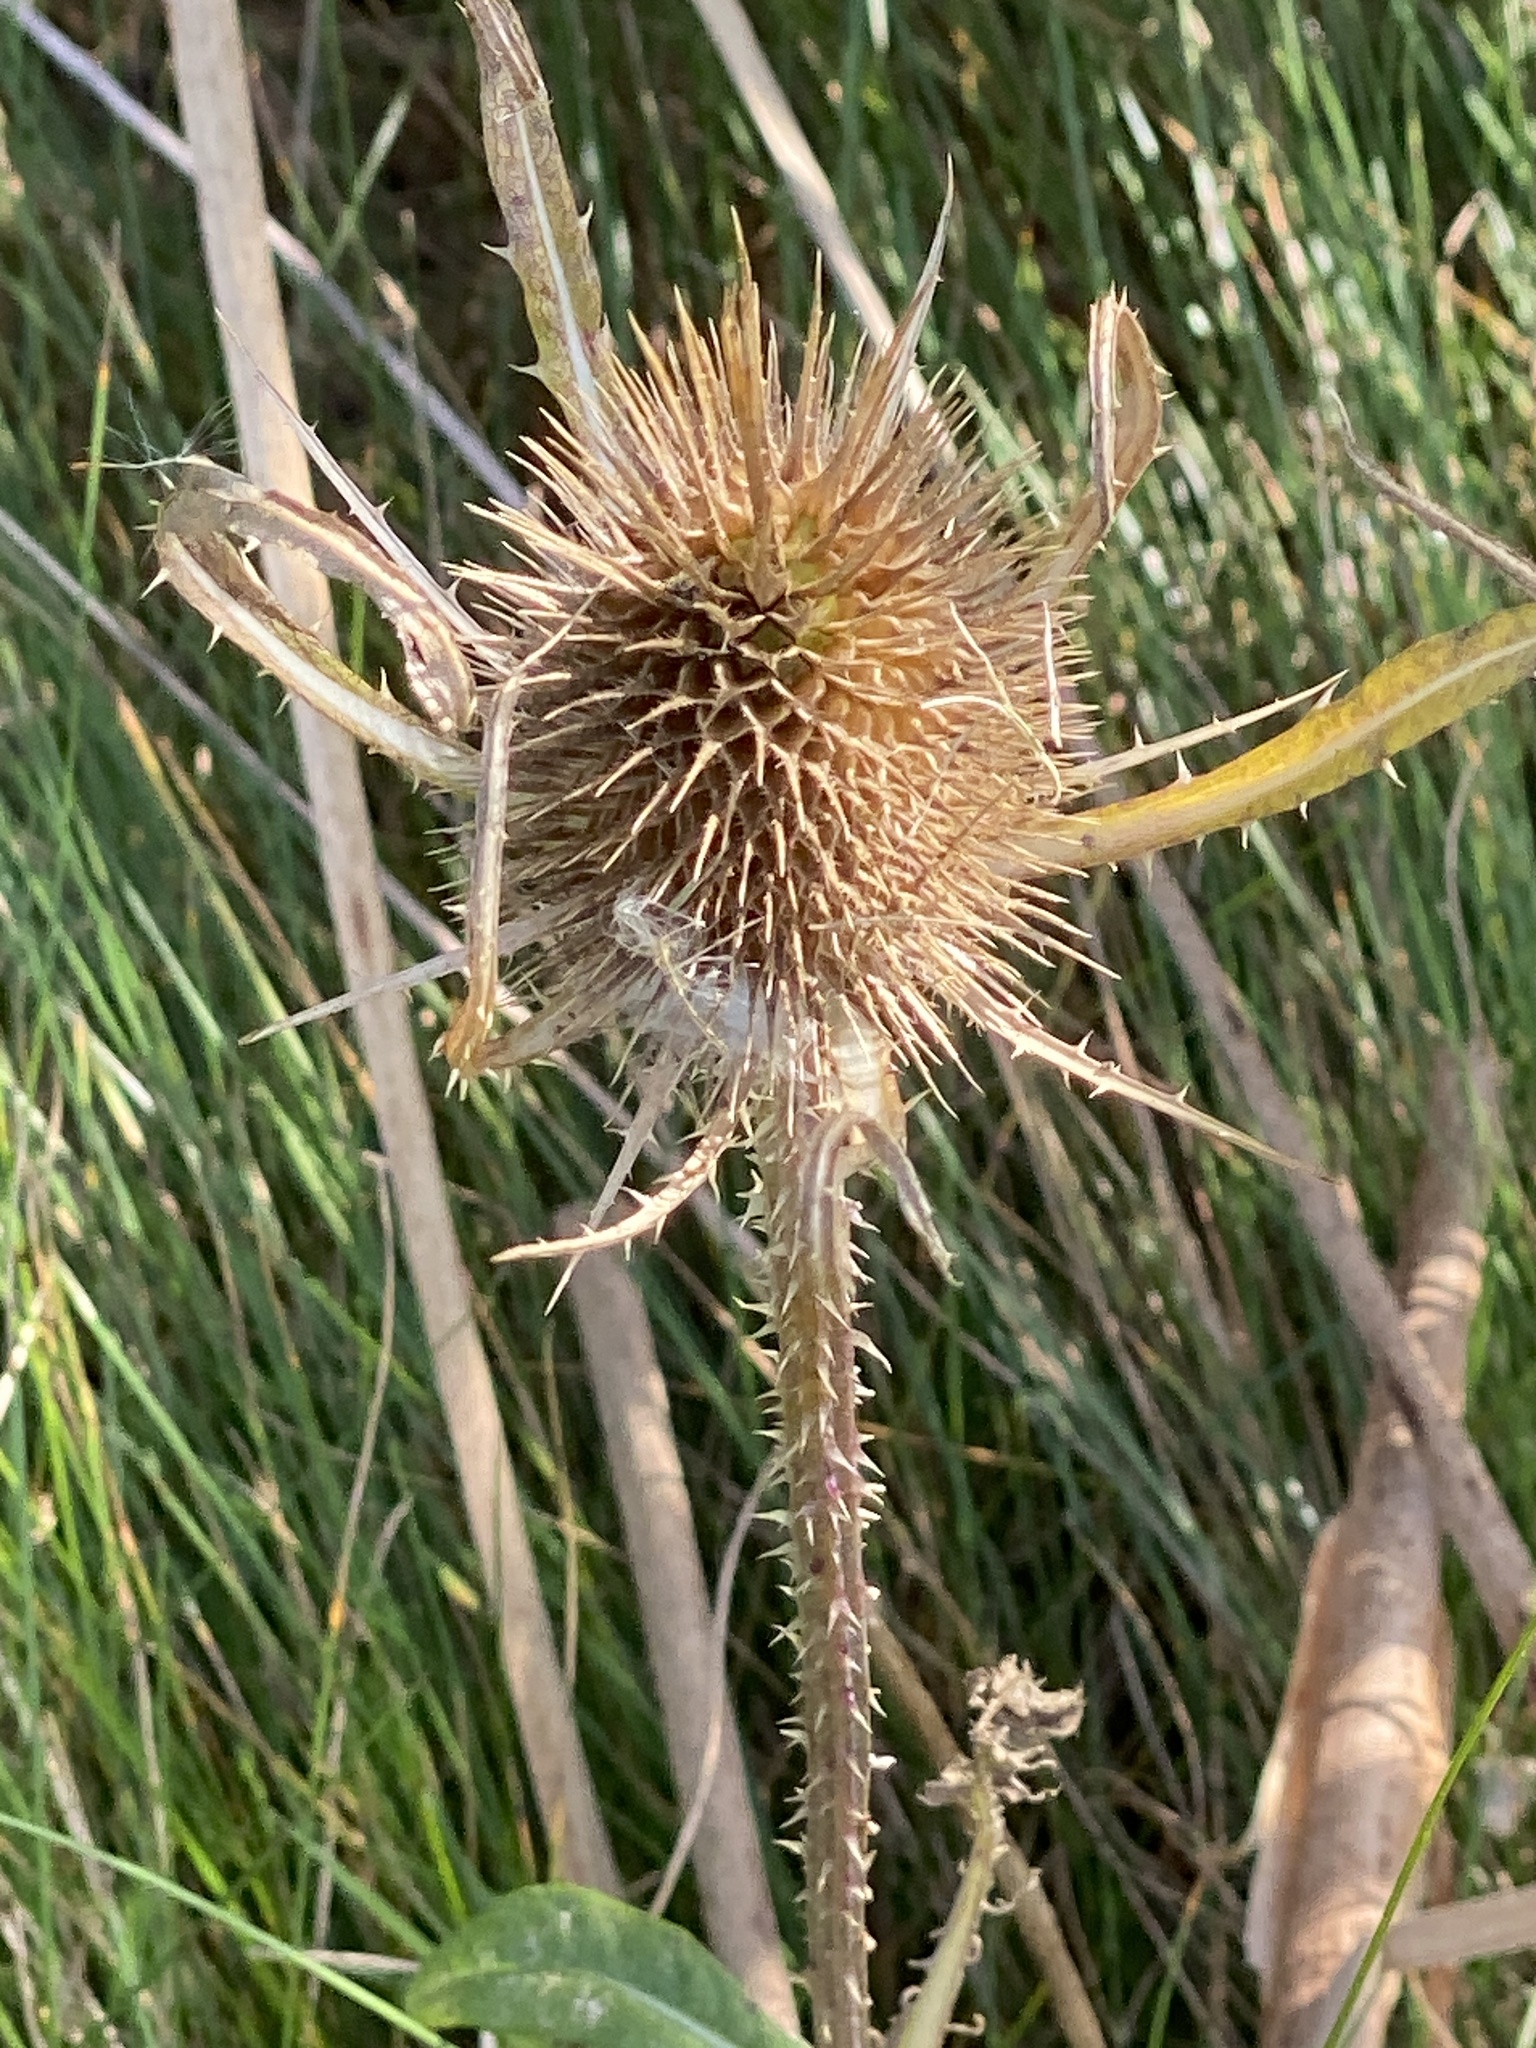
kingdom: Plantae
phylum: Tracheophyta
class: Magnoliopsida
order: Dipsacales
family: Caprifoliaceae
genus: Dipsacus
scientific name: Dipsacus fullonum
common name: Teasel
